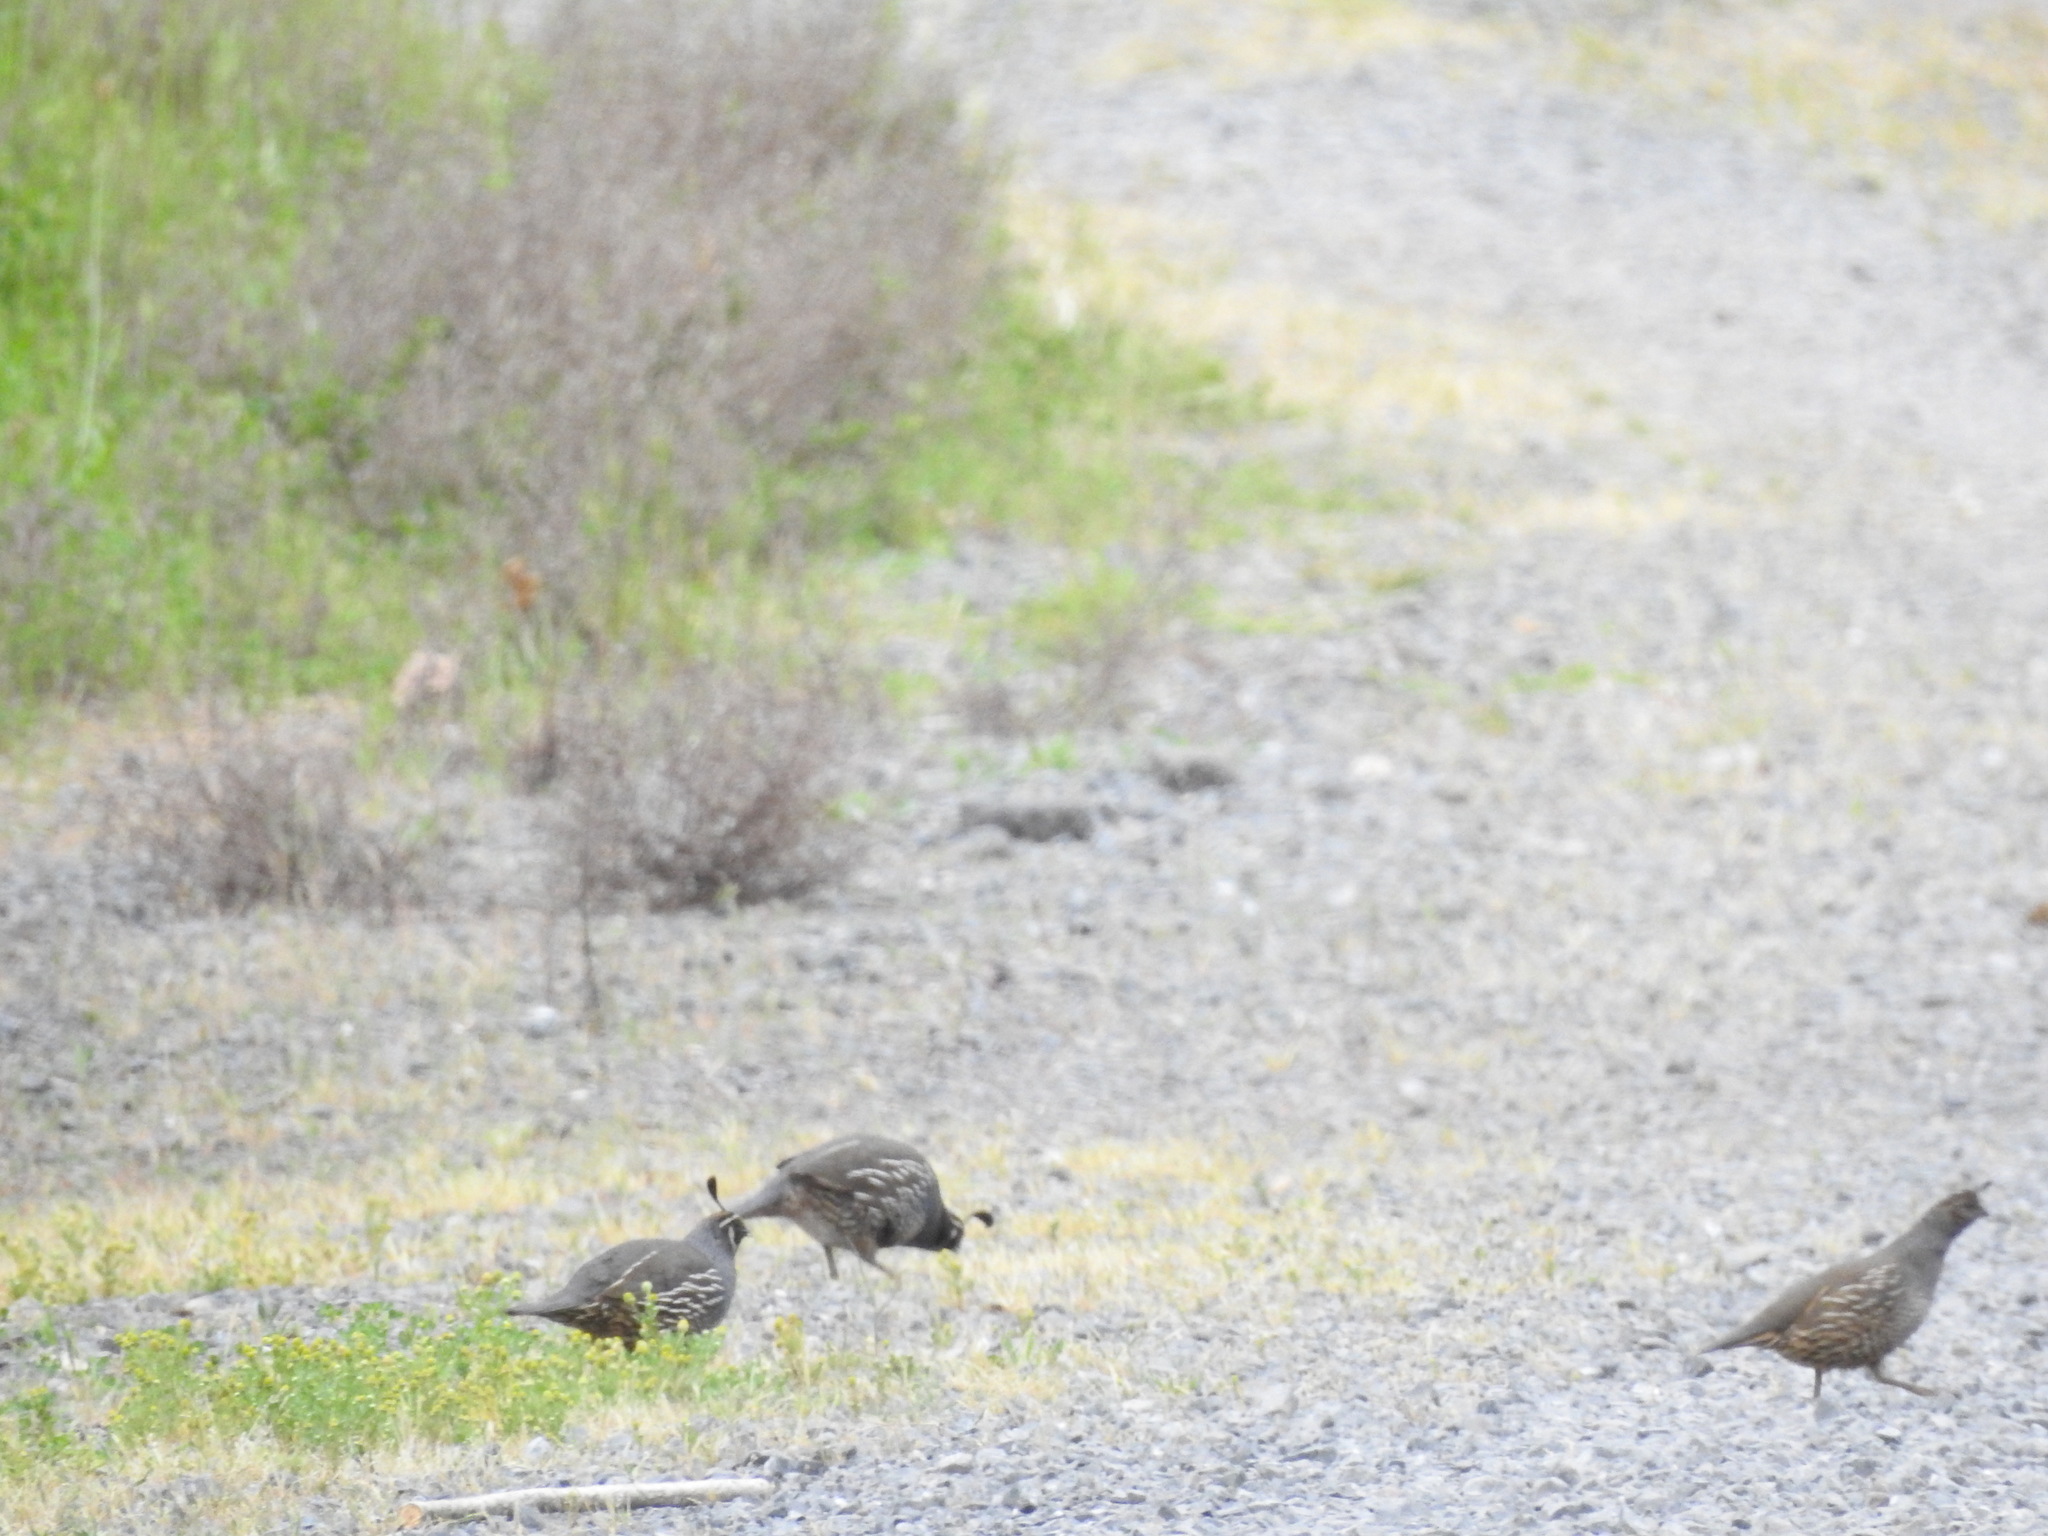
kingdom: Animalia
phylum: Chordata
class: Aves
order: Galliformes
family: Odontophoridae
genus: Callipepla
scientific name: Callipepla californica
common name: California quail
